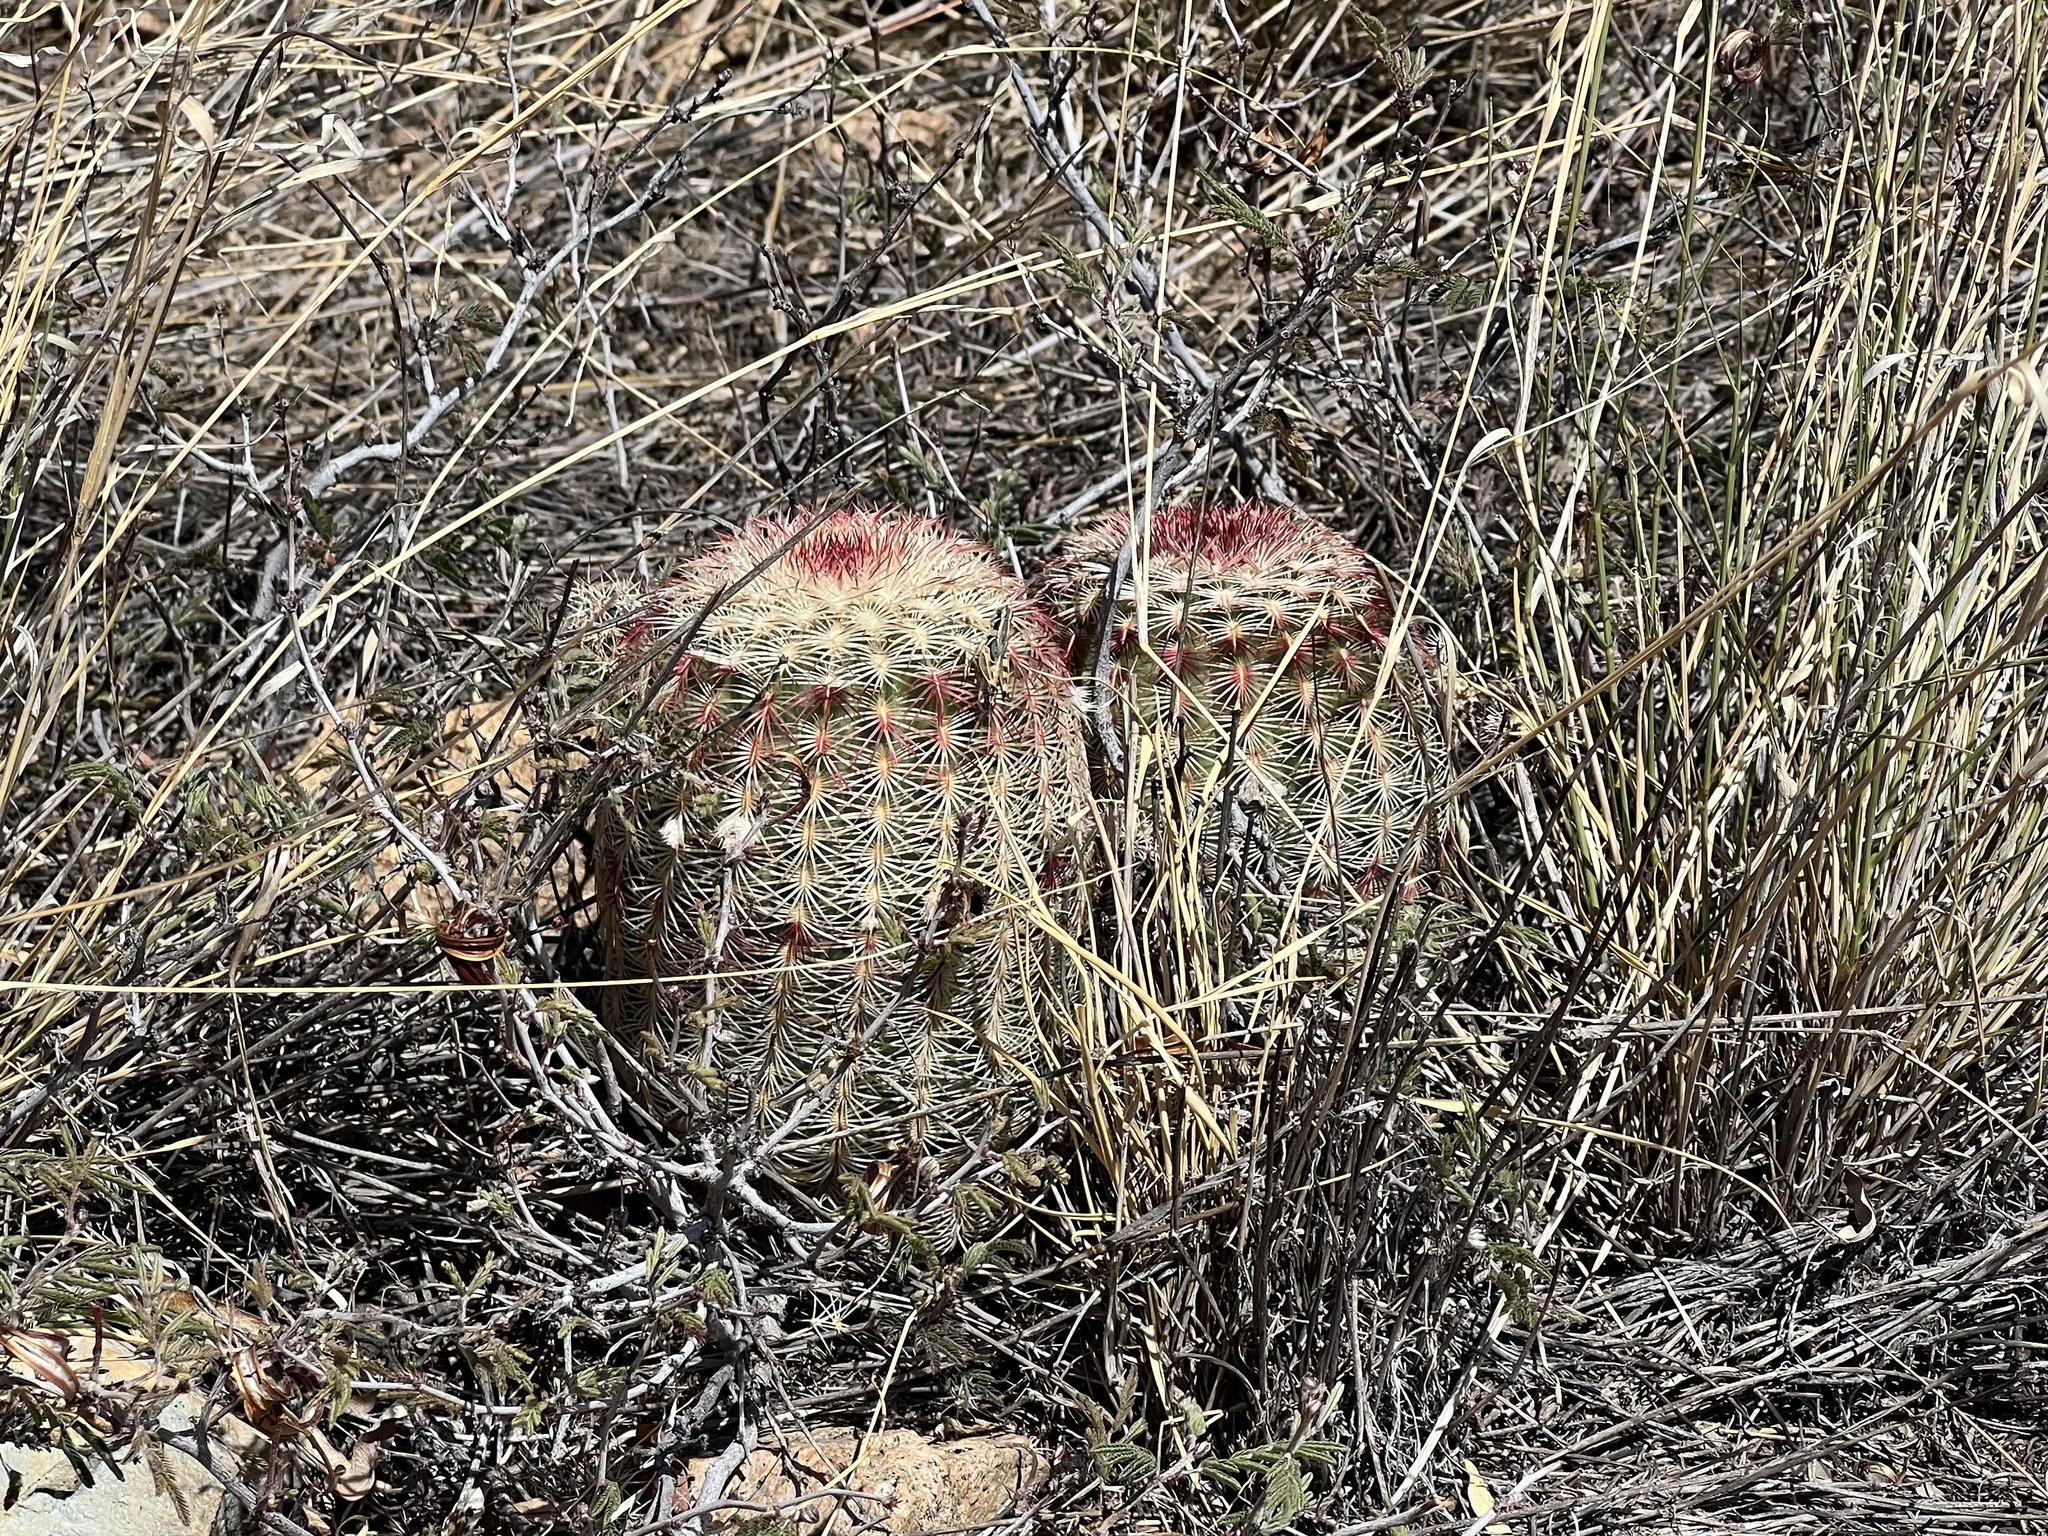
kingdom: Plantae
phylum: Tracheophyta
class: Magnoliopsida
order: Caryophyllales
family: Cactaceae
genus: Echinocereus
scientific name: Echinocereus rigidissimus
